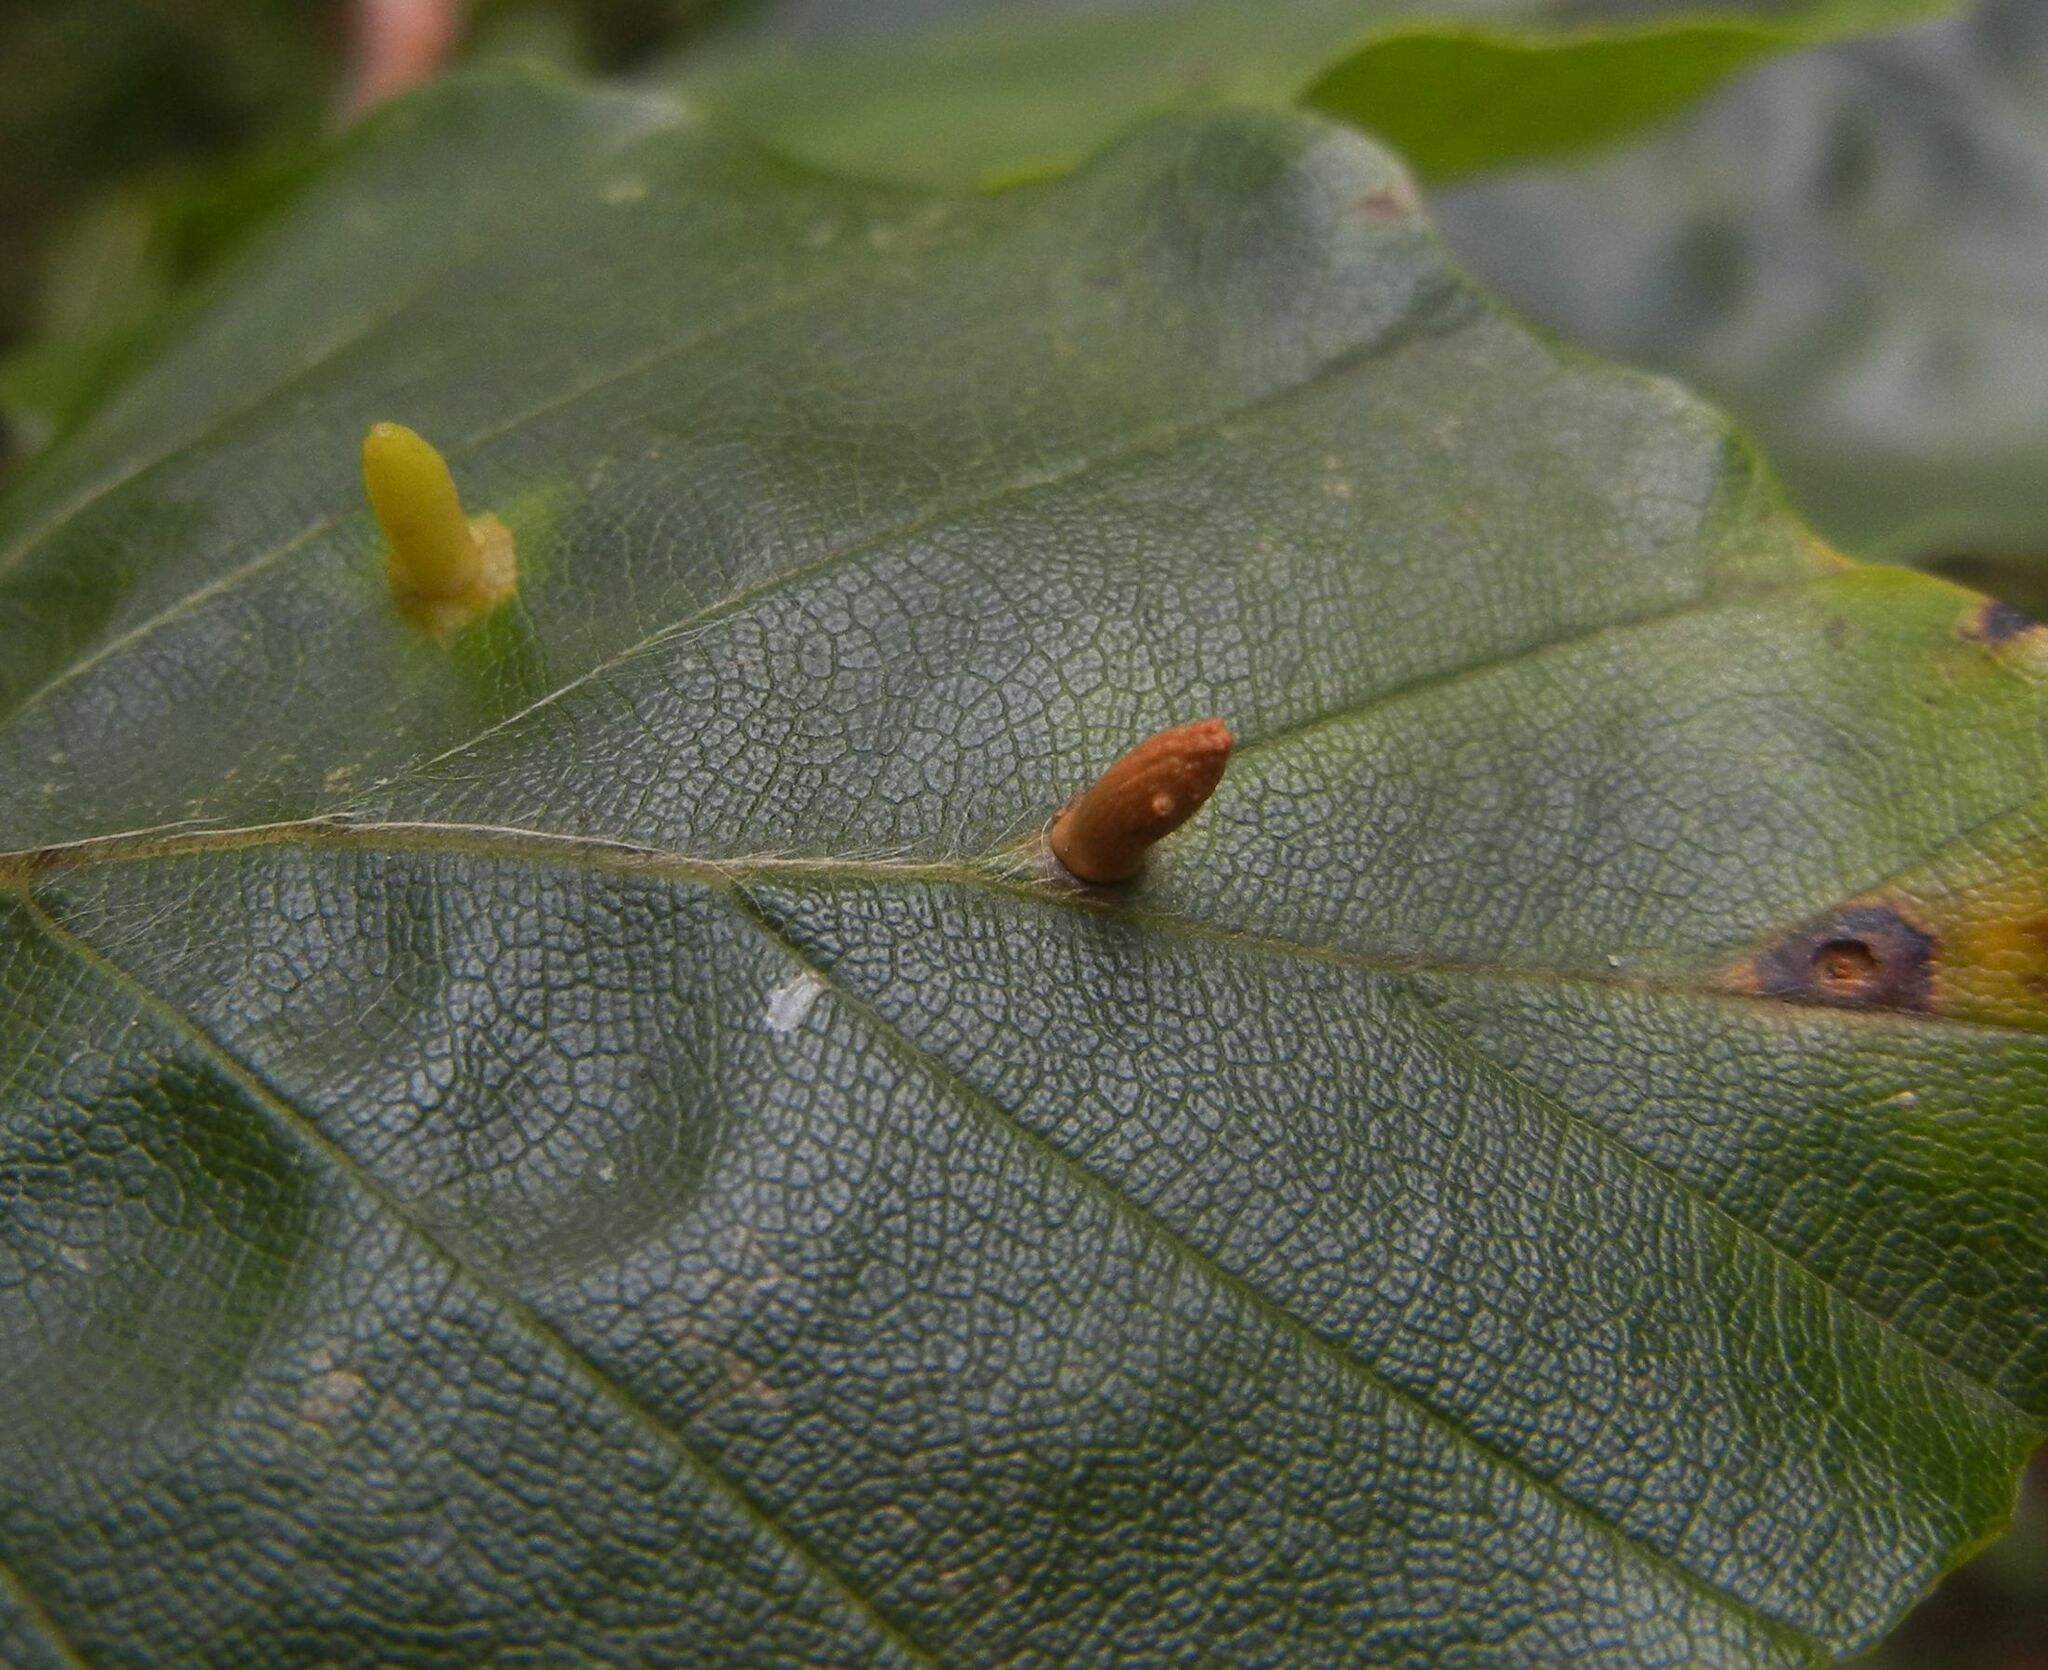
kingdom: Animalia
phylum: Arthropoda
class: Insecta
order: Diptera
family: Cecidomyiidae
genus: Hartigiola
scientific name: Hartigiola annulipes
